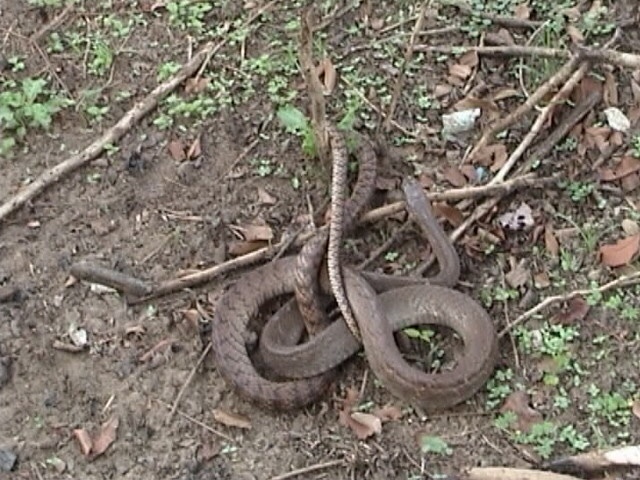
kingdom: Animalia
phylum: Chordata
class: Squamata
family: Colubridae
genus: Ptyas
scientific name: Ptyas mucosa
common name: Oriental ratsnake
